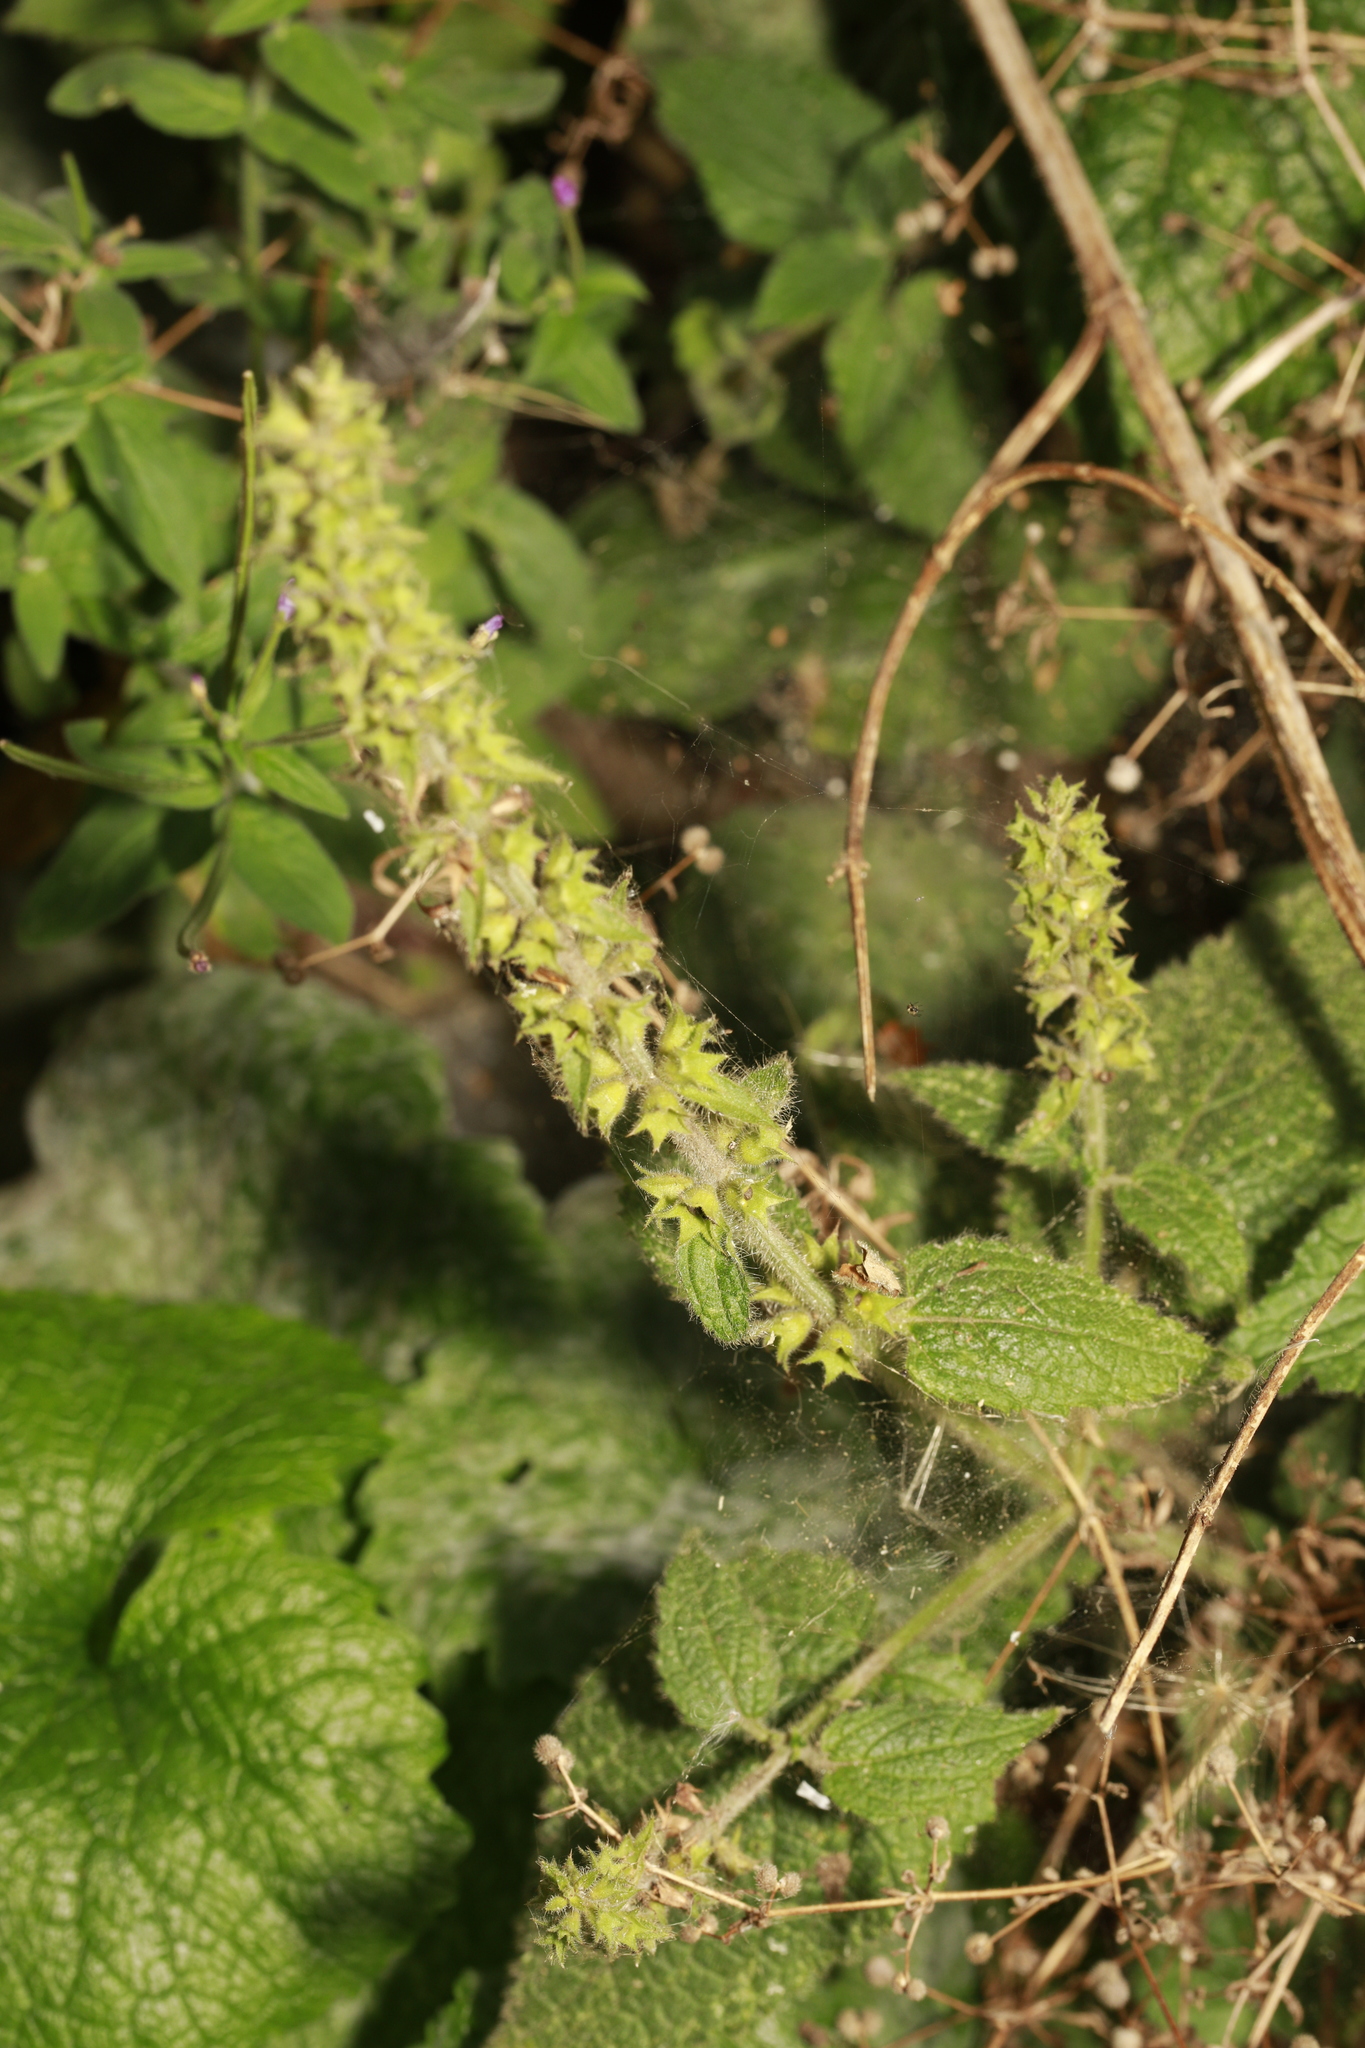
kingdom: Plantae
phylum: Tracheophyta
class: Magnoliopsida
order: Lamiales
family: Lamiaceae
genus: Stachys
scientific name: Stachys sylvatica
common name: Hedge woundwort
